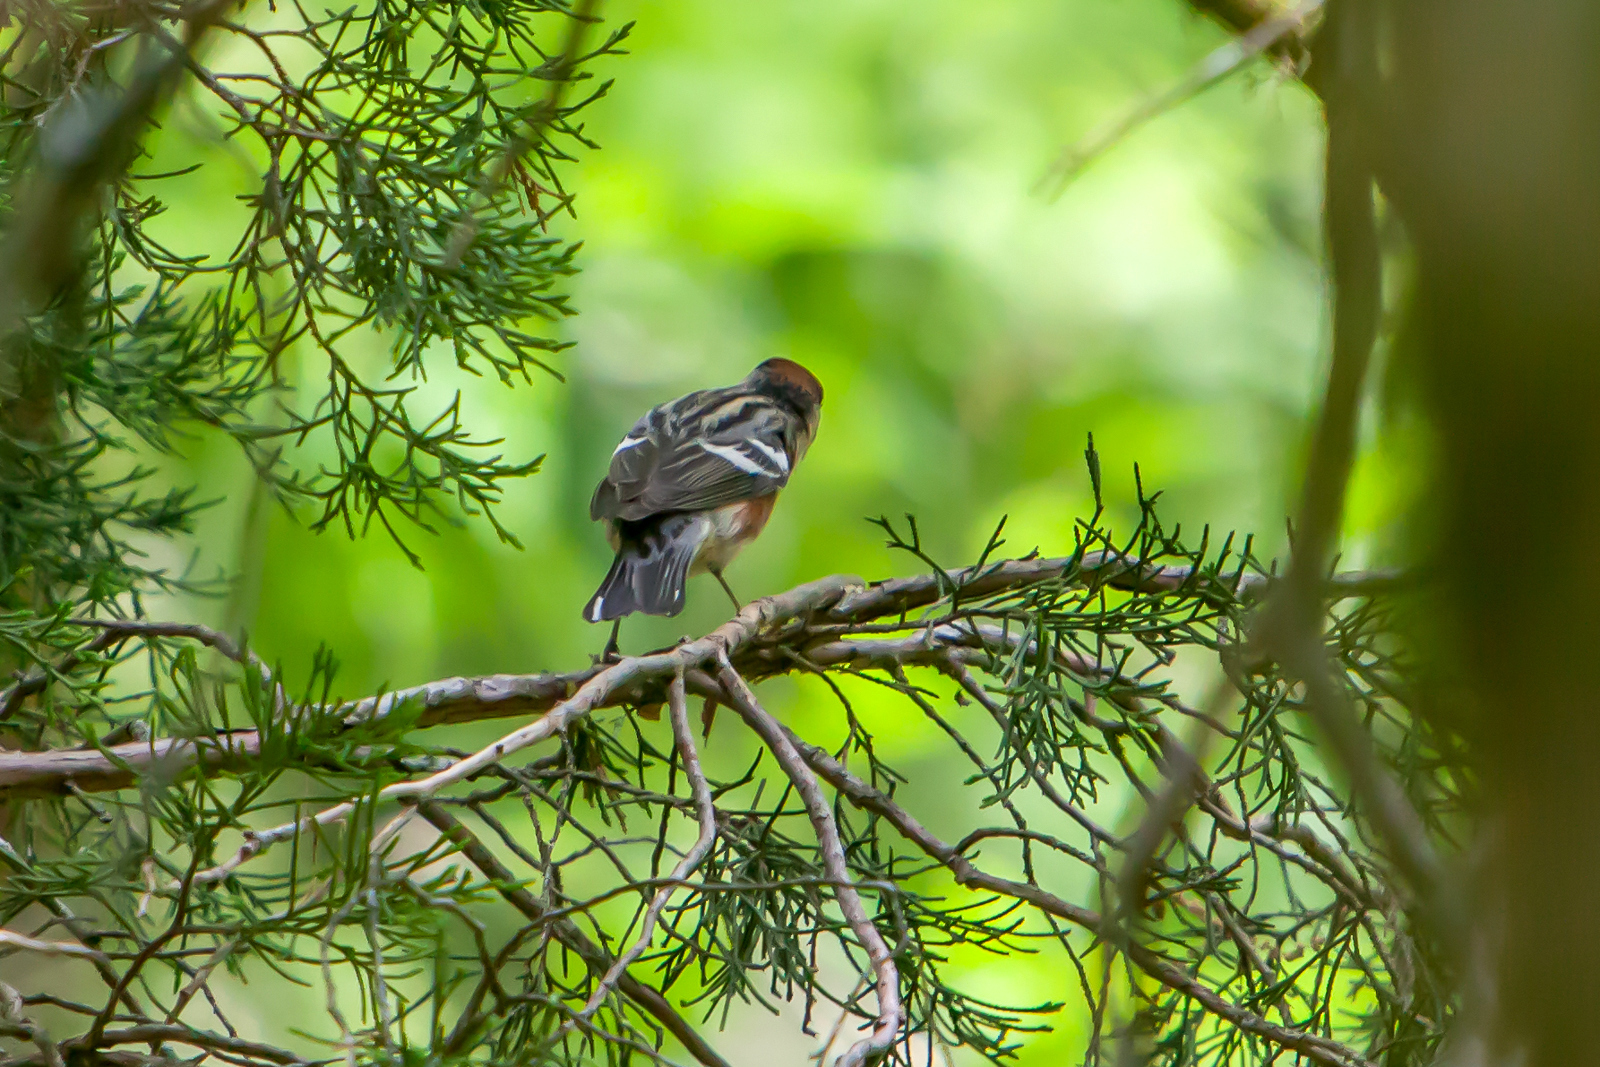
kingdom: Animalia
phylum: Chordata
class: Aves
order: Passeriformes
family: Parulidae
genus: Setophaga
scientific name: Setophaga castanea
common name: Bay-breasted warbler
